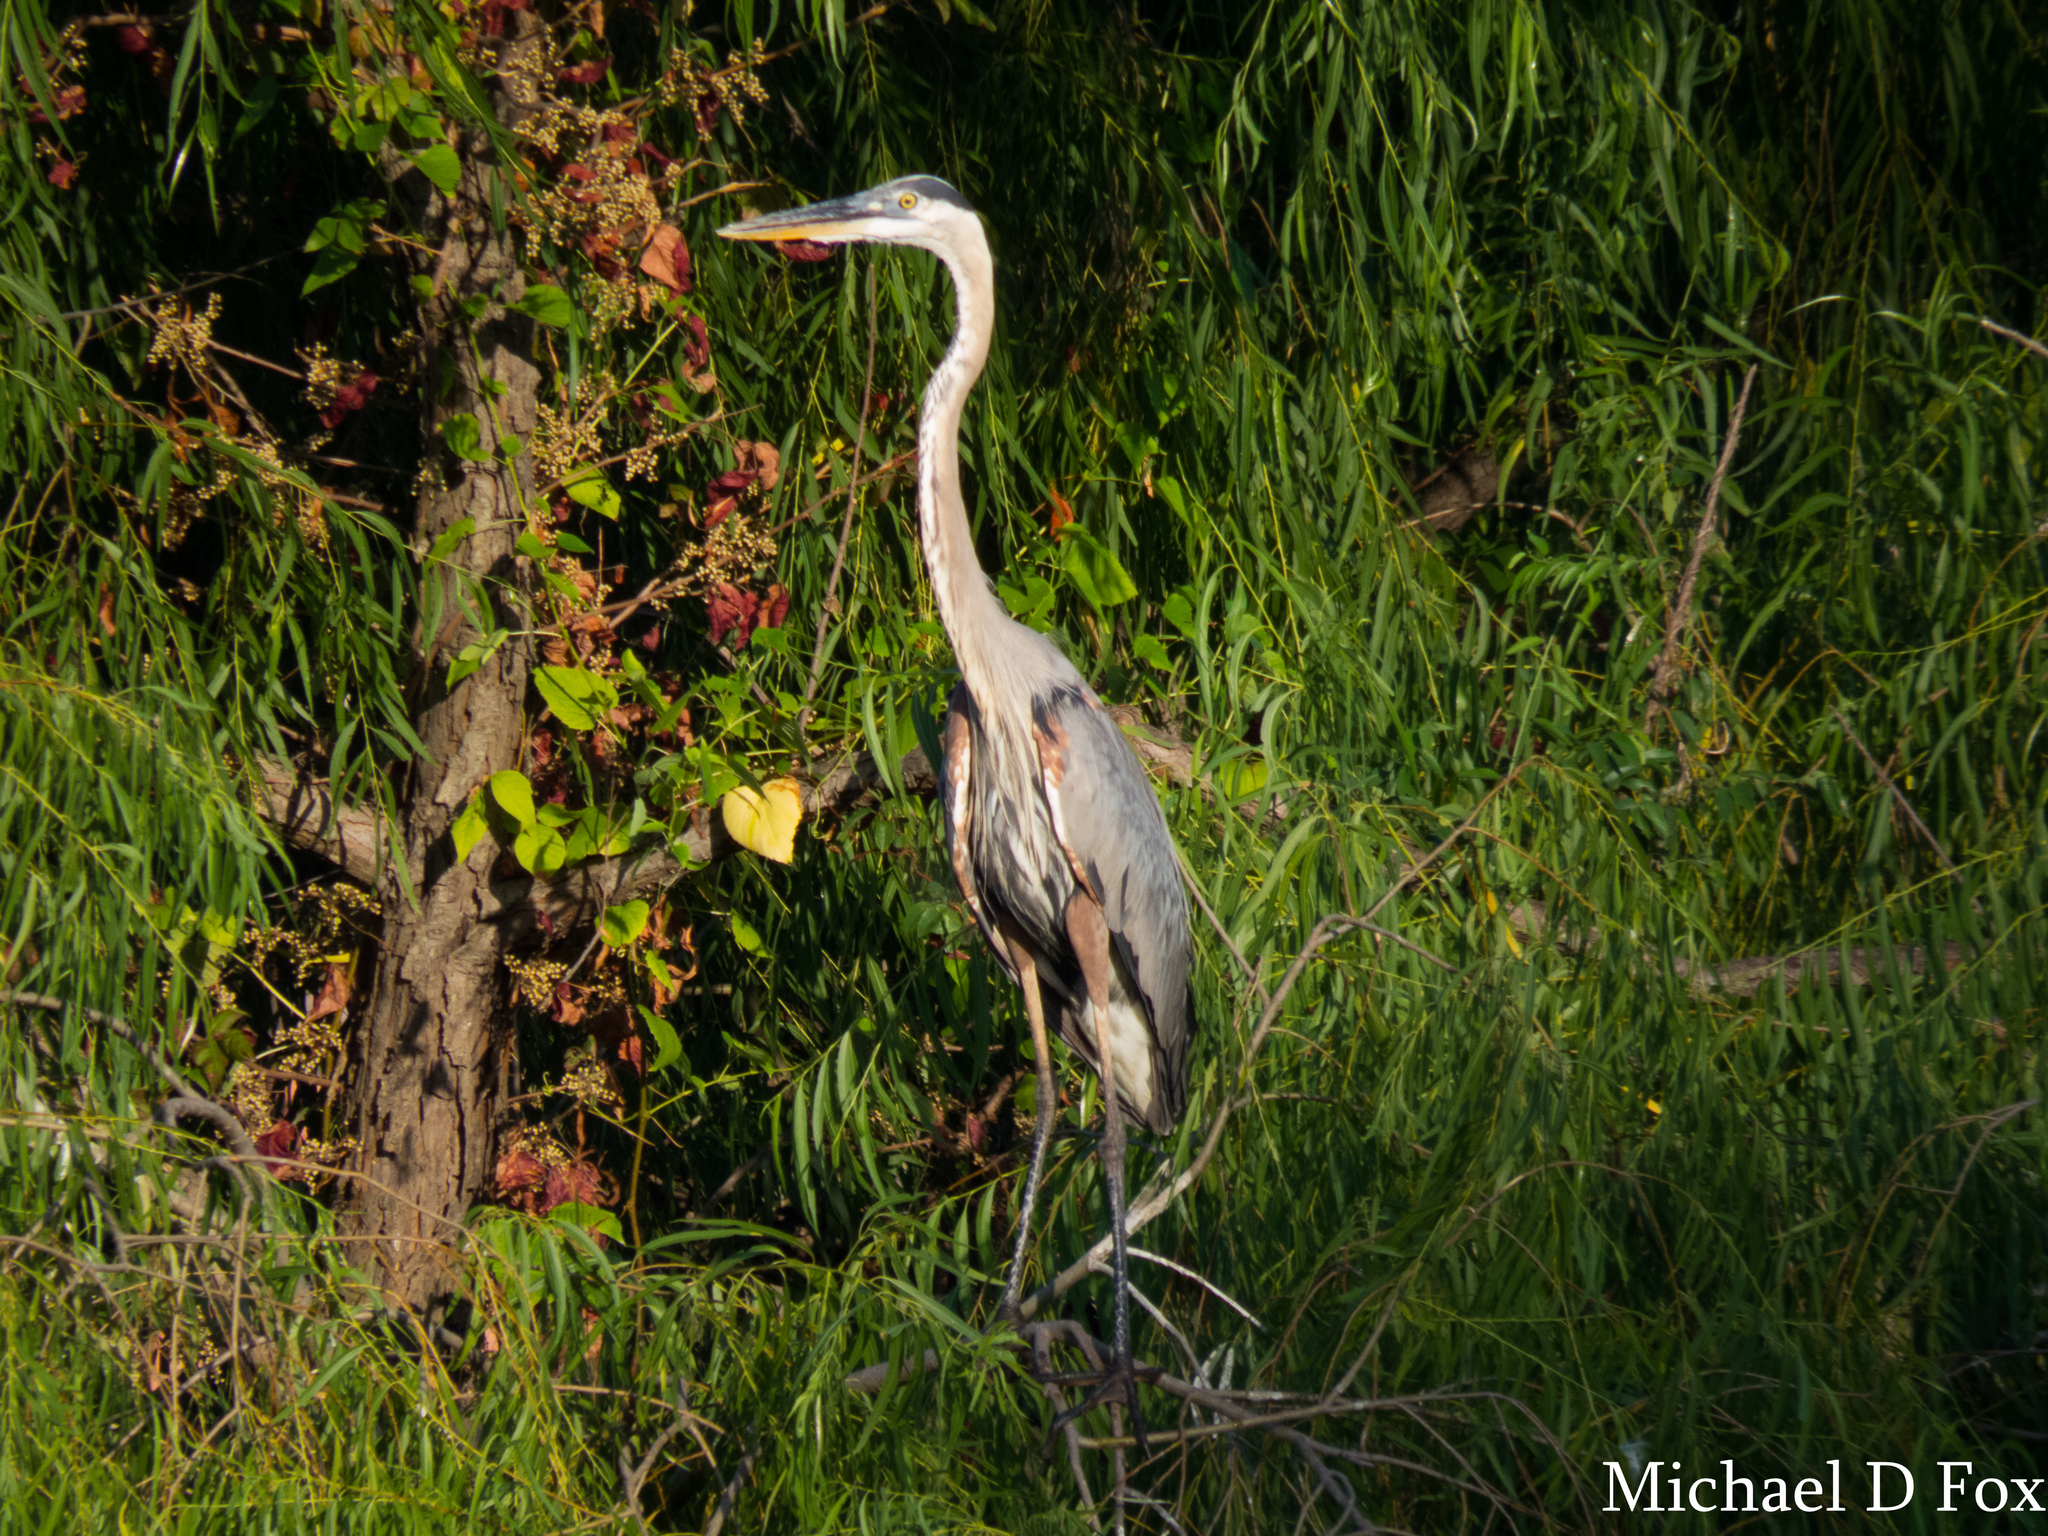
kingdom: Animalia
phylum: Chordata
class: Aves
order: Pelecaniformes
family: Ardeidae
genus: Ardea
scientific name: Ardea herodias
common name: Great blue heron
